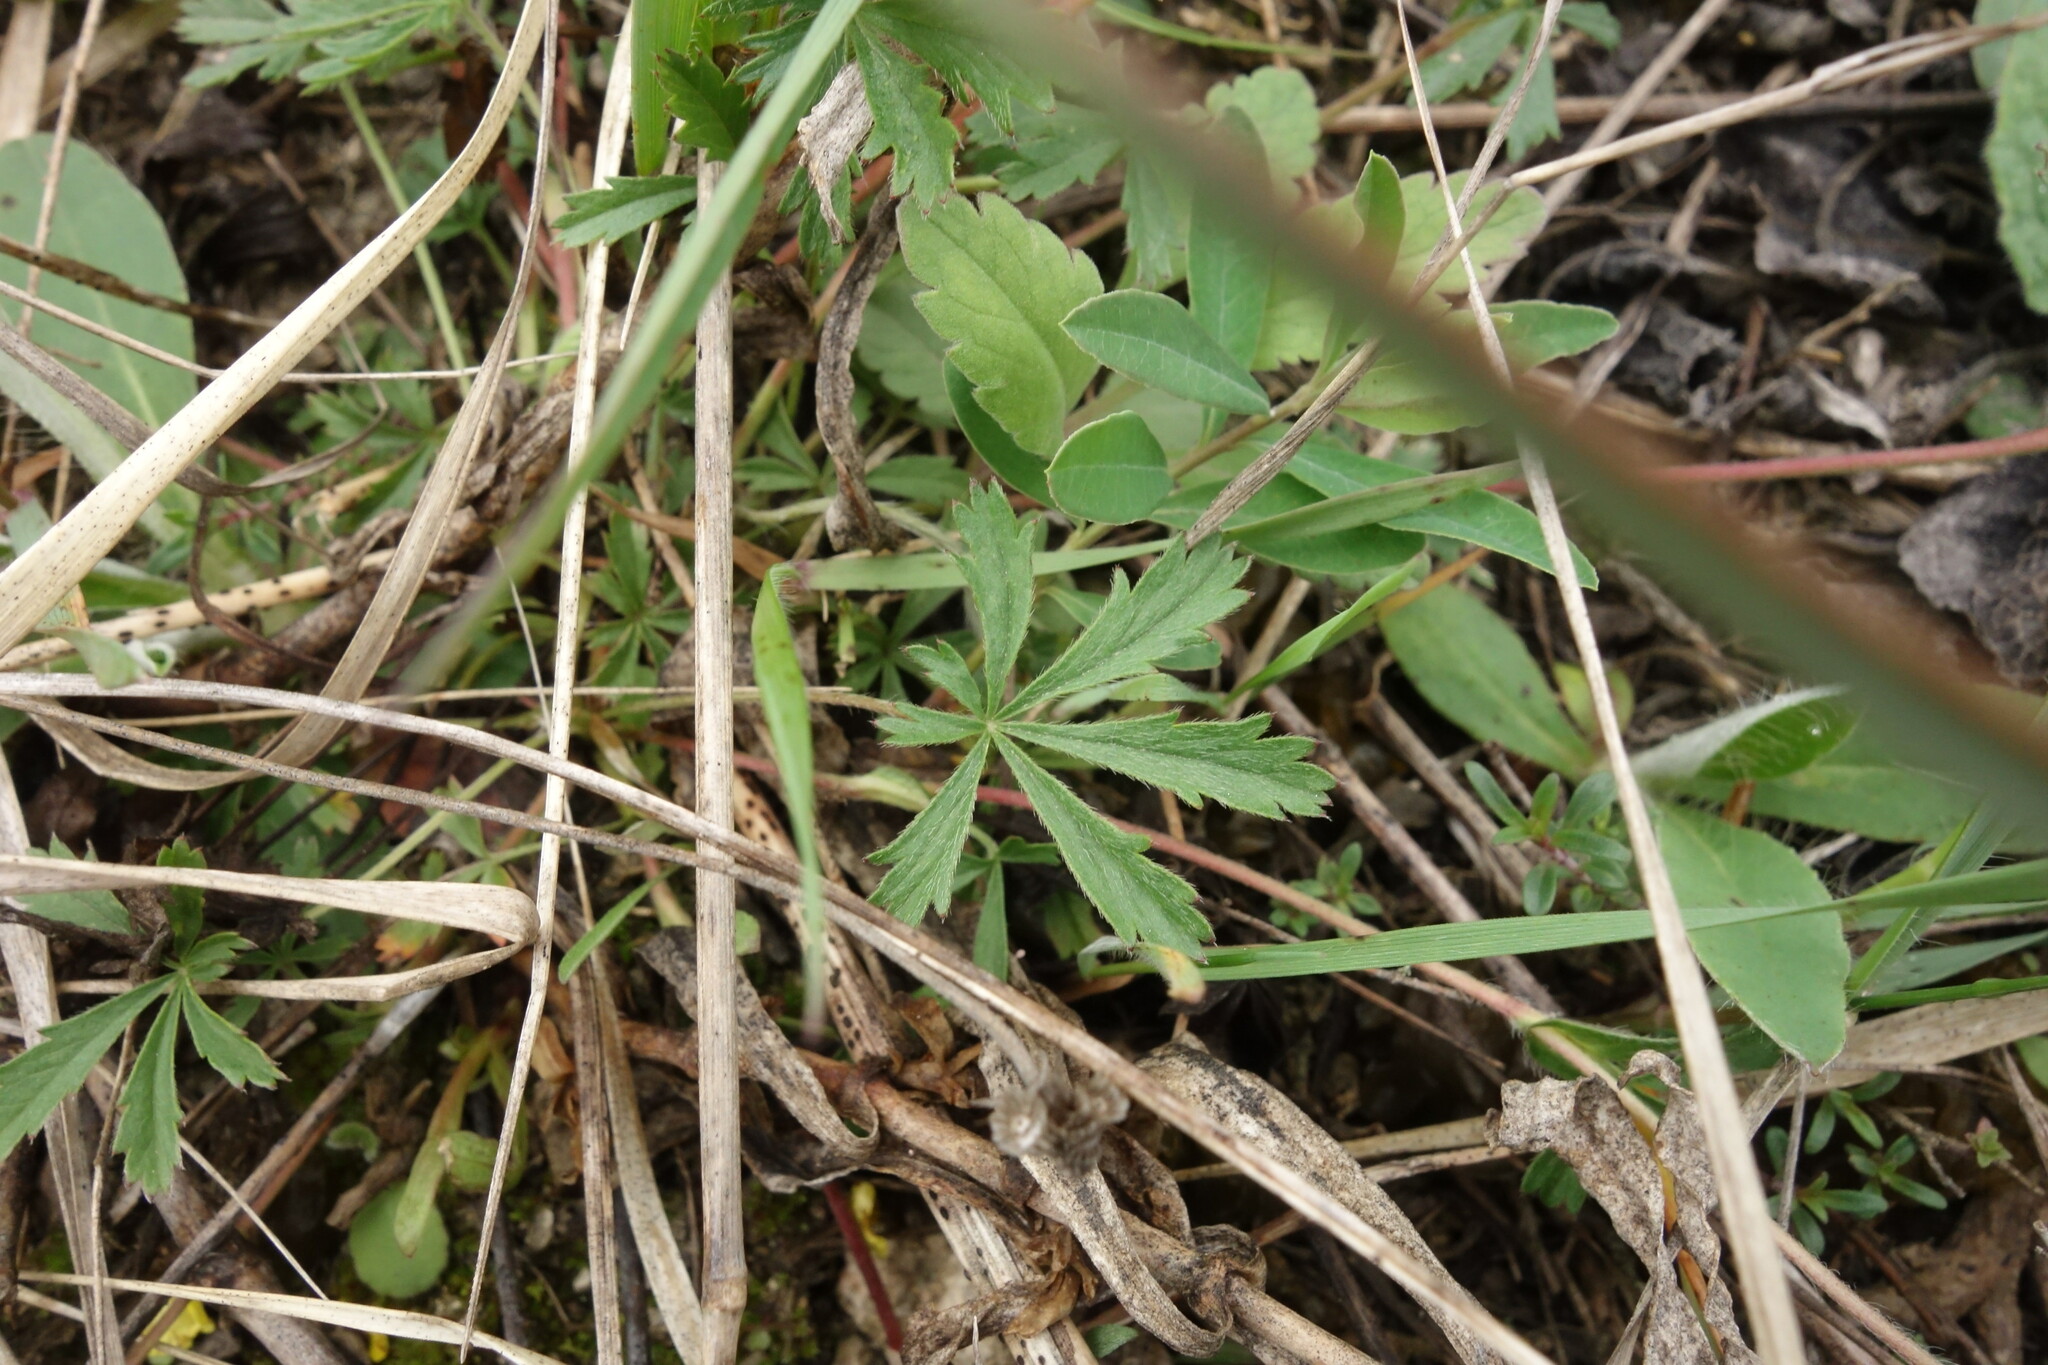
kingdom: Plantae
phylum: Tracheophyta
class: Magnoliopsida
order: Rosales
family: Rosaceae
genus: Potentilla
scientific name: Potentilla humifusa
